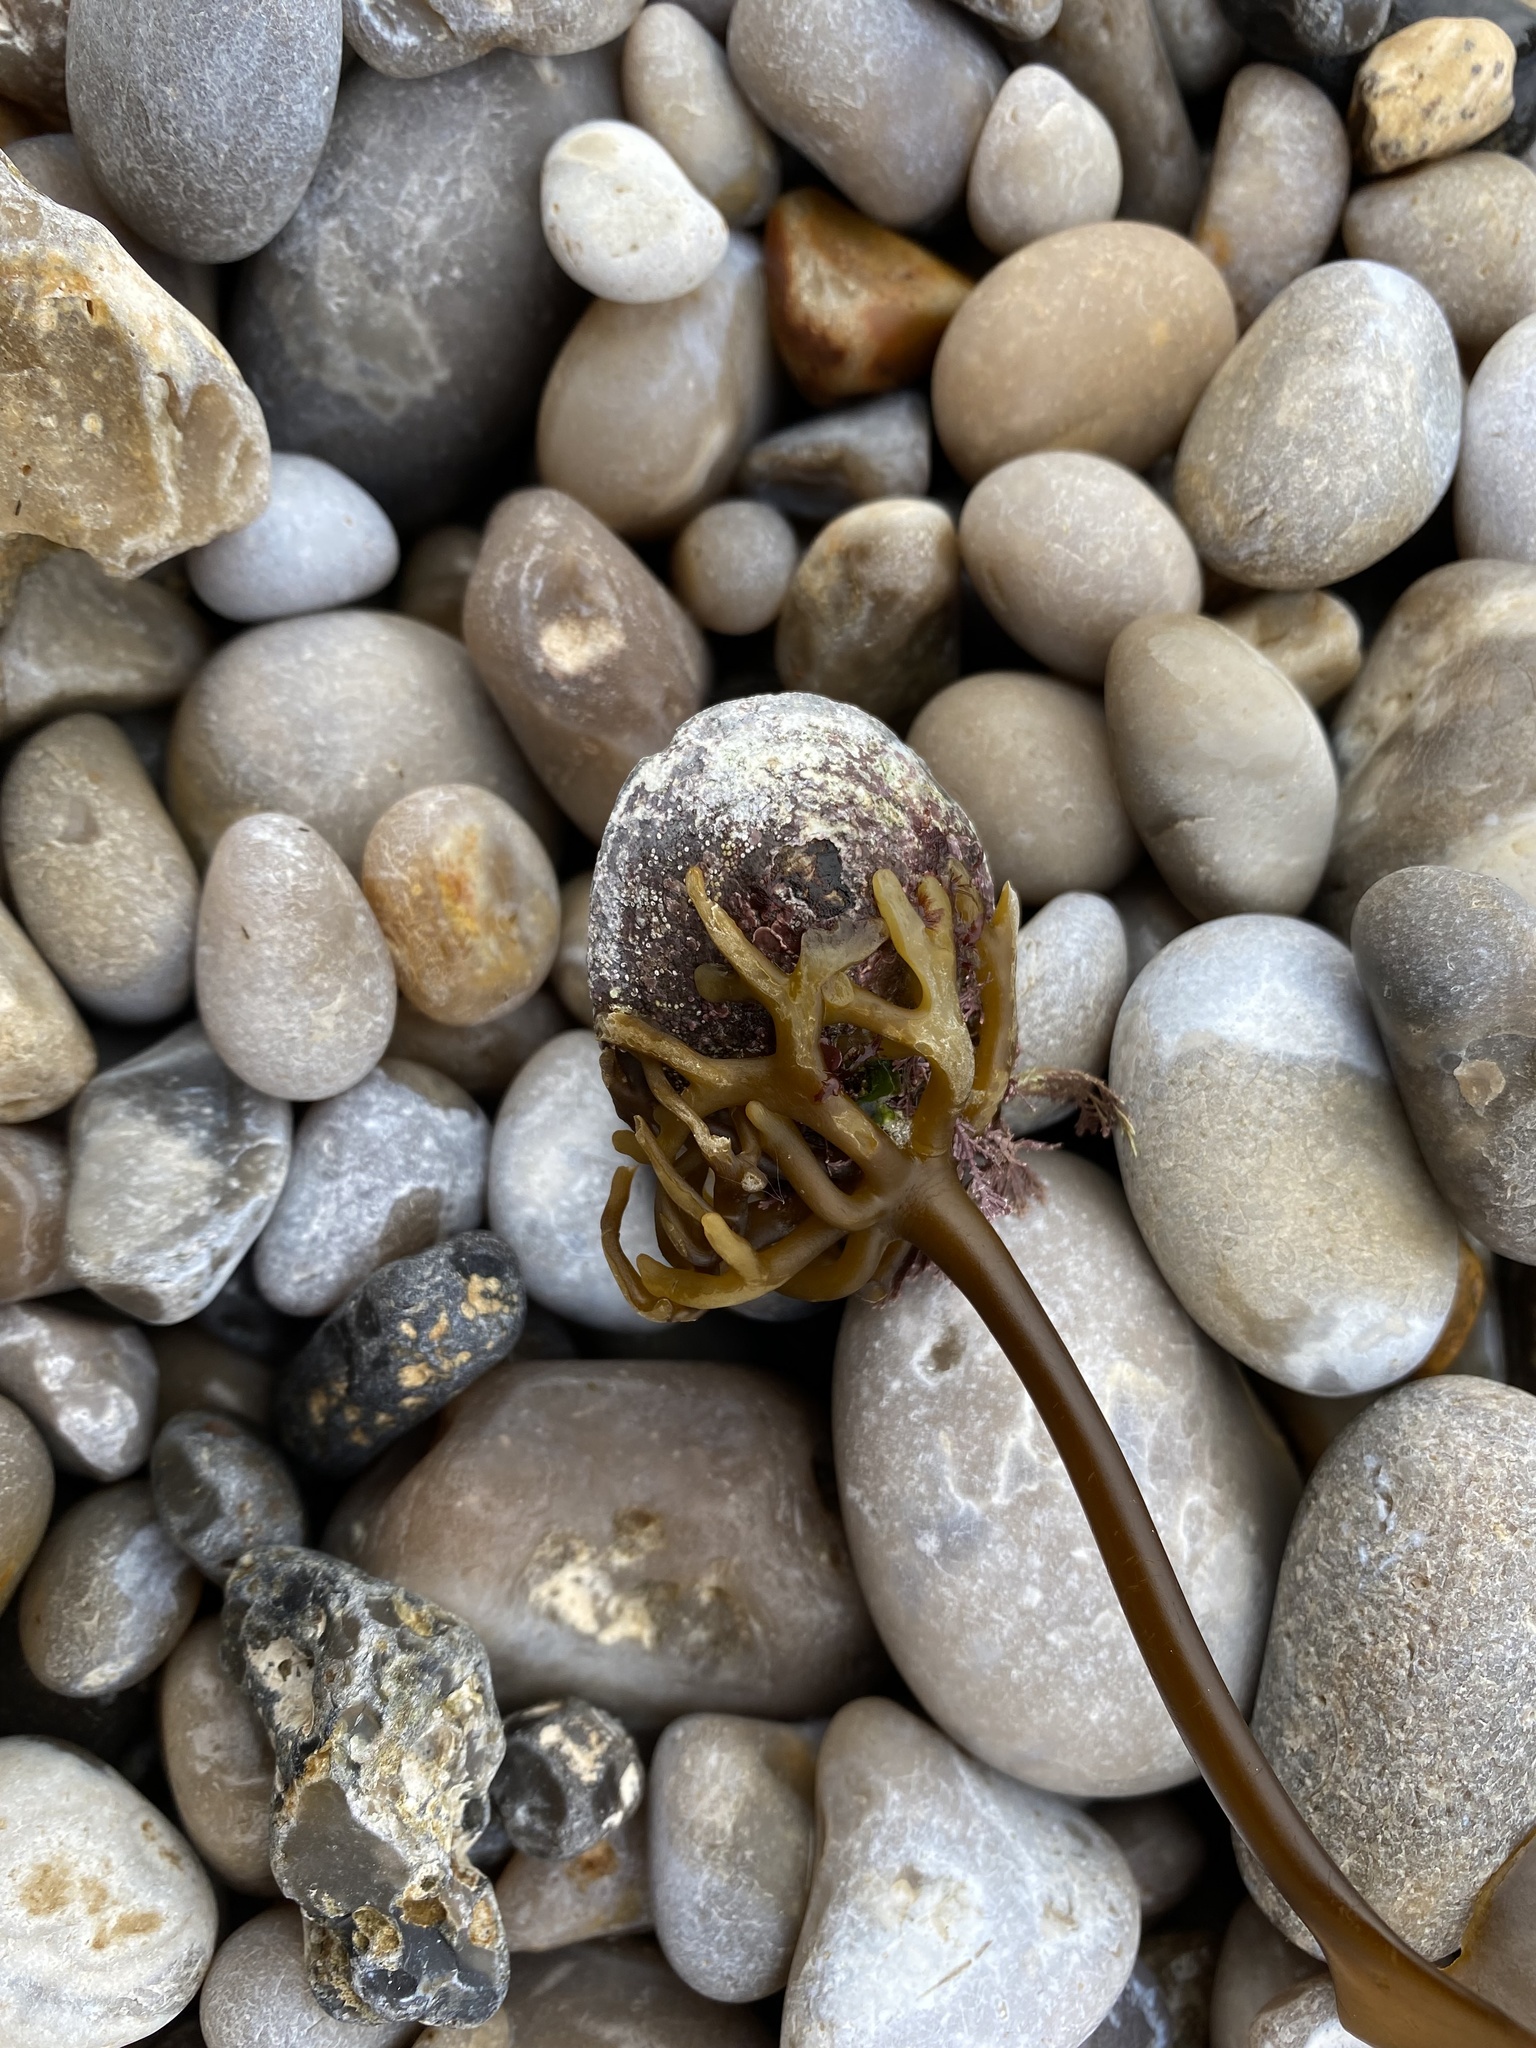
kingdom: Chromista
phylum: Ochrophyta
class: Phaeophyceae
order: Laminariales
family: Laminariaceae
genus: Laminaria
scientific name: Laminaria digitata
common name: Oarweed
